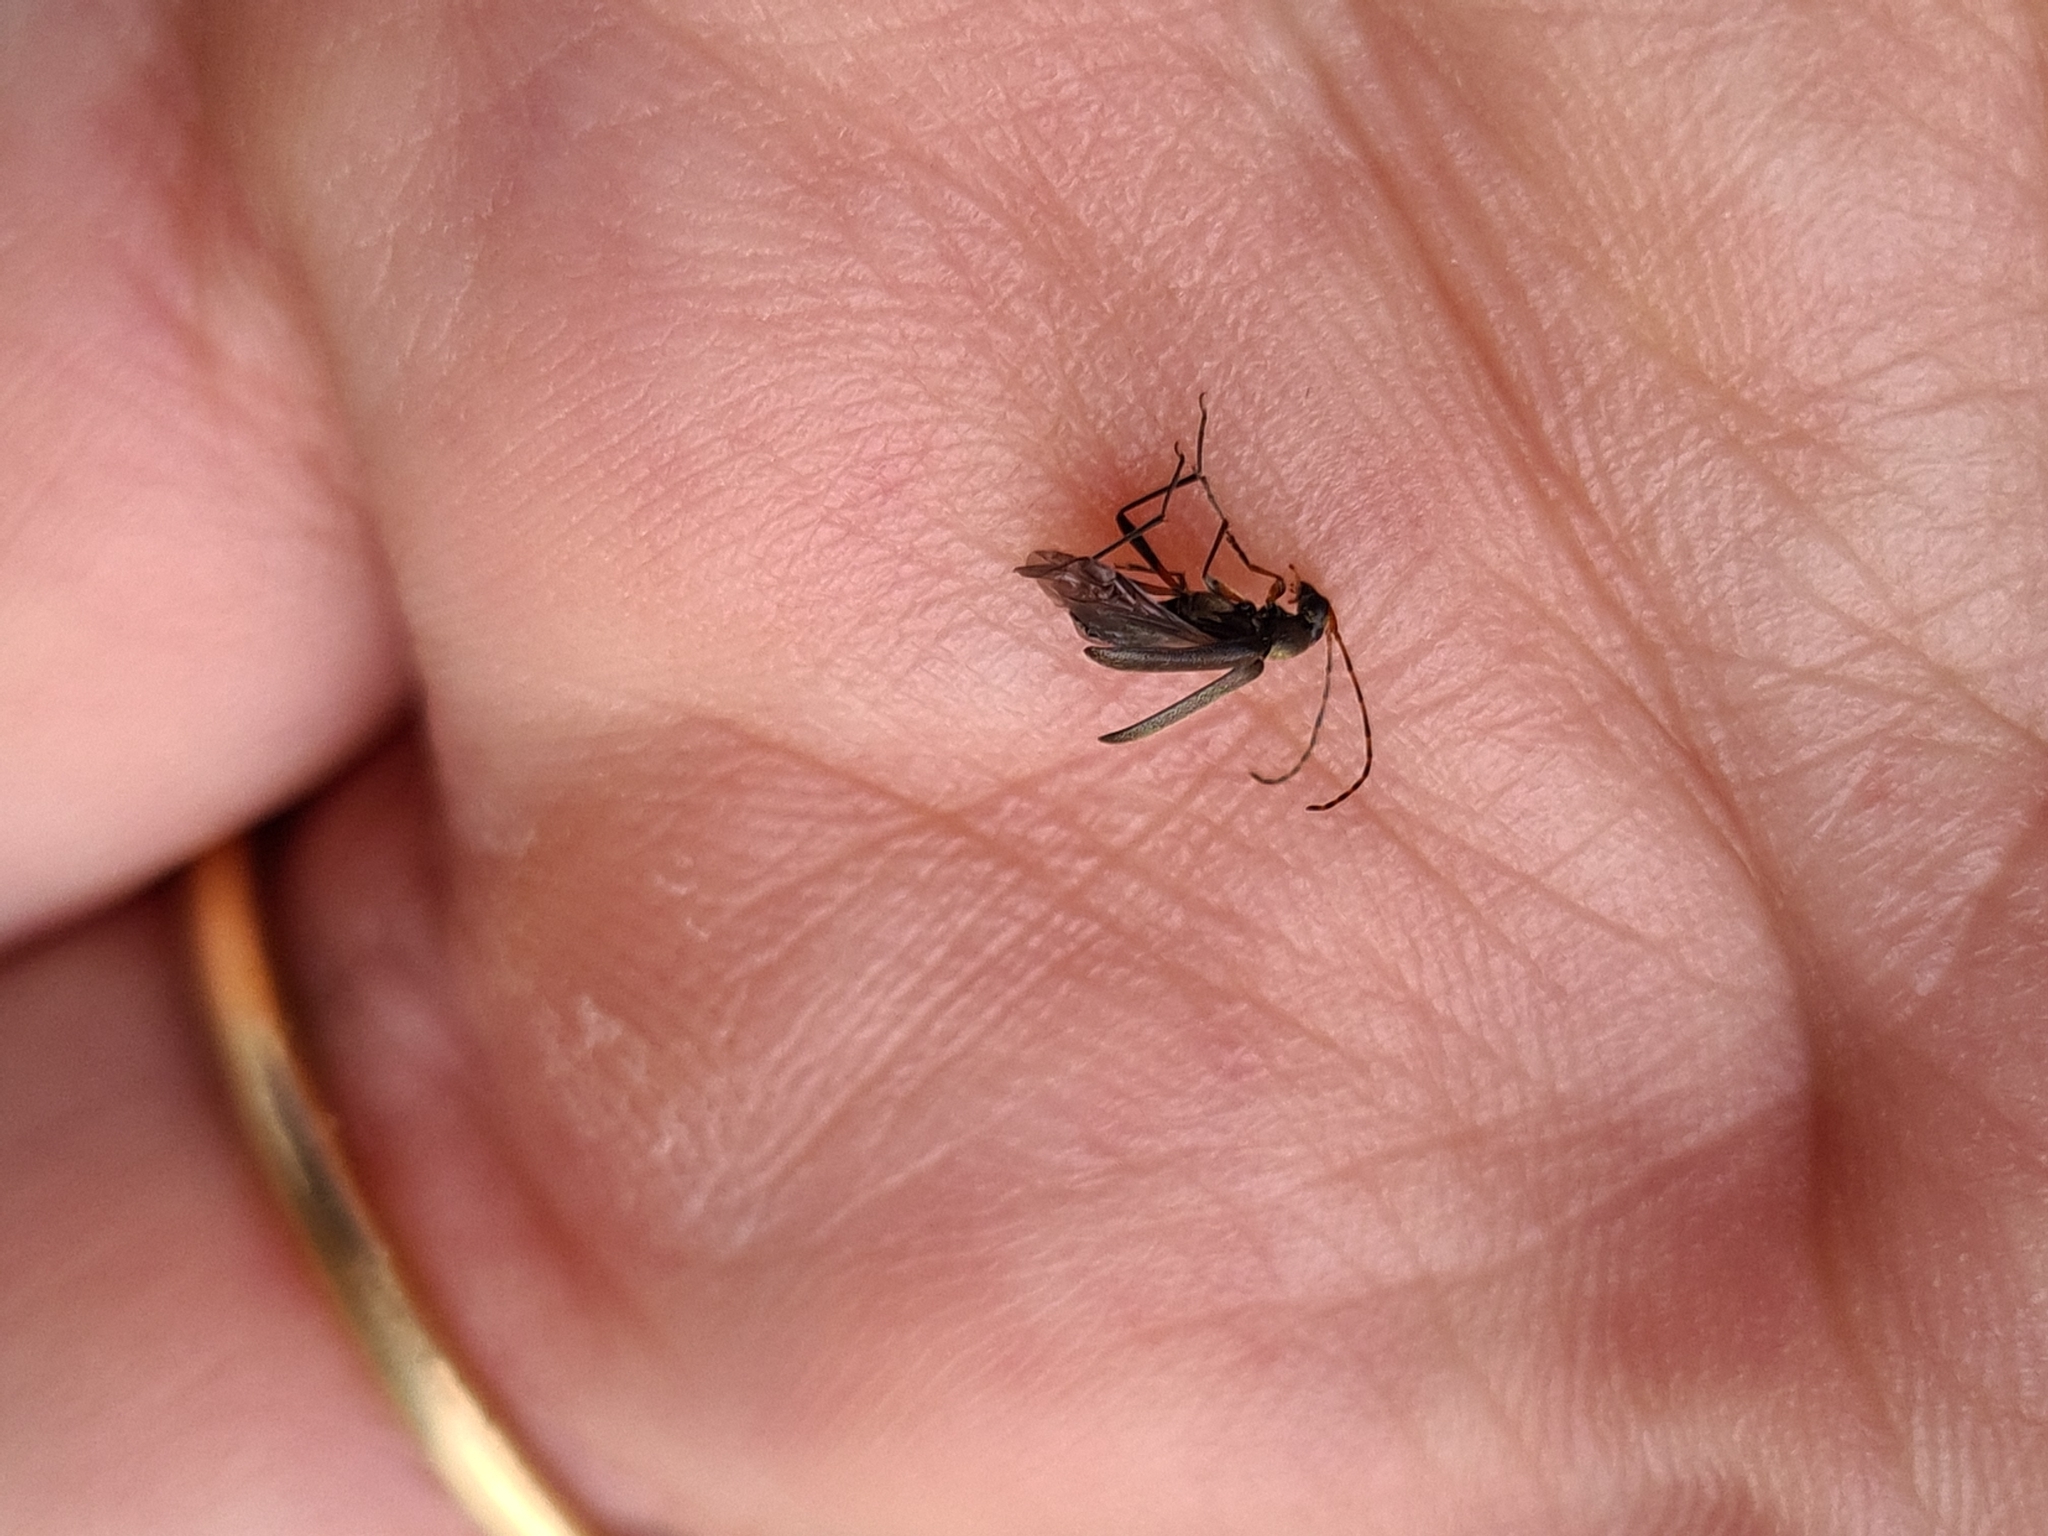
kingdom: Animalia
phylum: Arthropoda
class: Insecta
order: Coleoptera
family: Cerambycidae
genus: Grammoptera
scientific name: Grammoptera ruficornis
